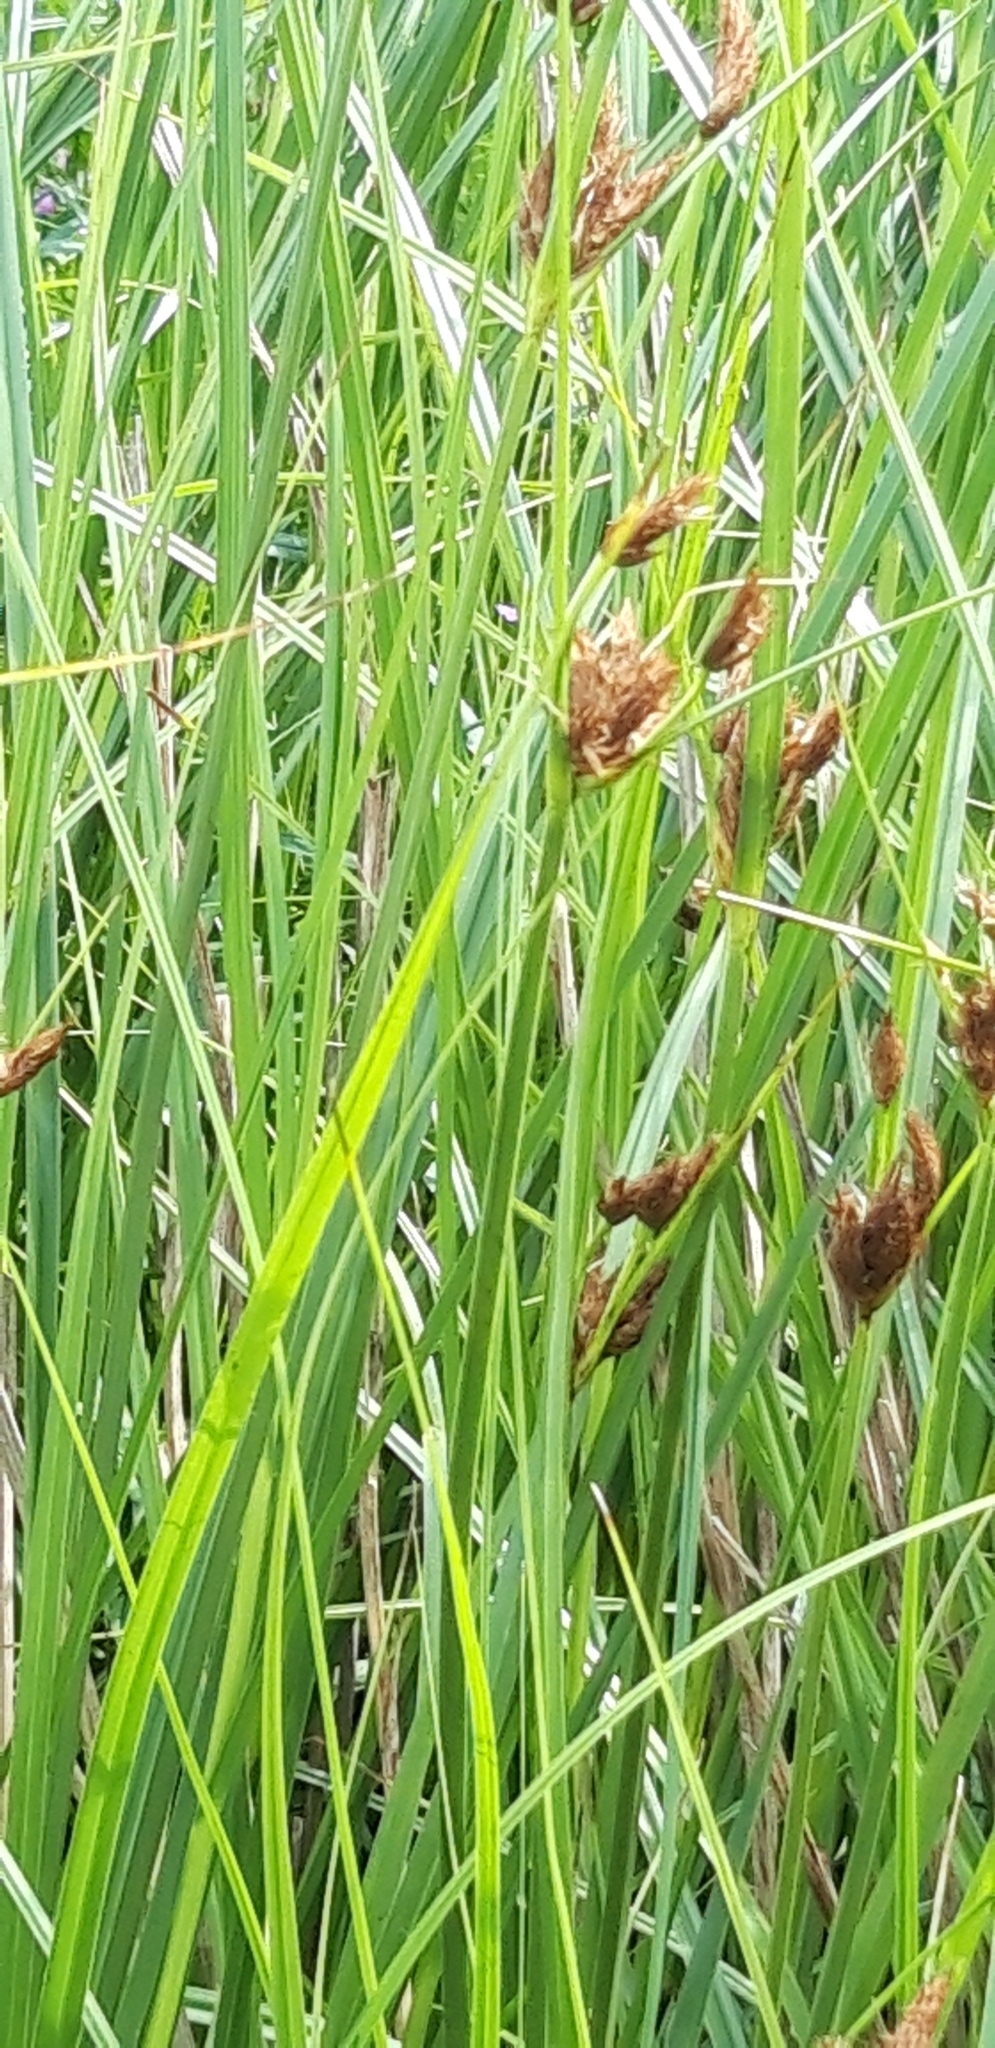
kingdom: Plantae
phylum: Tracheophyta
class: Liliopsida
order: Poales
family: Cyperaceae
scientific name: Cyperaceae
